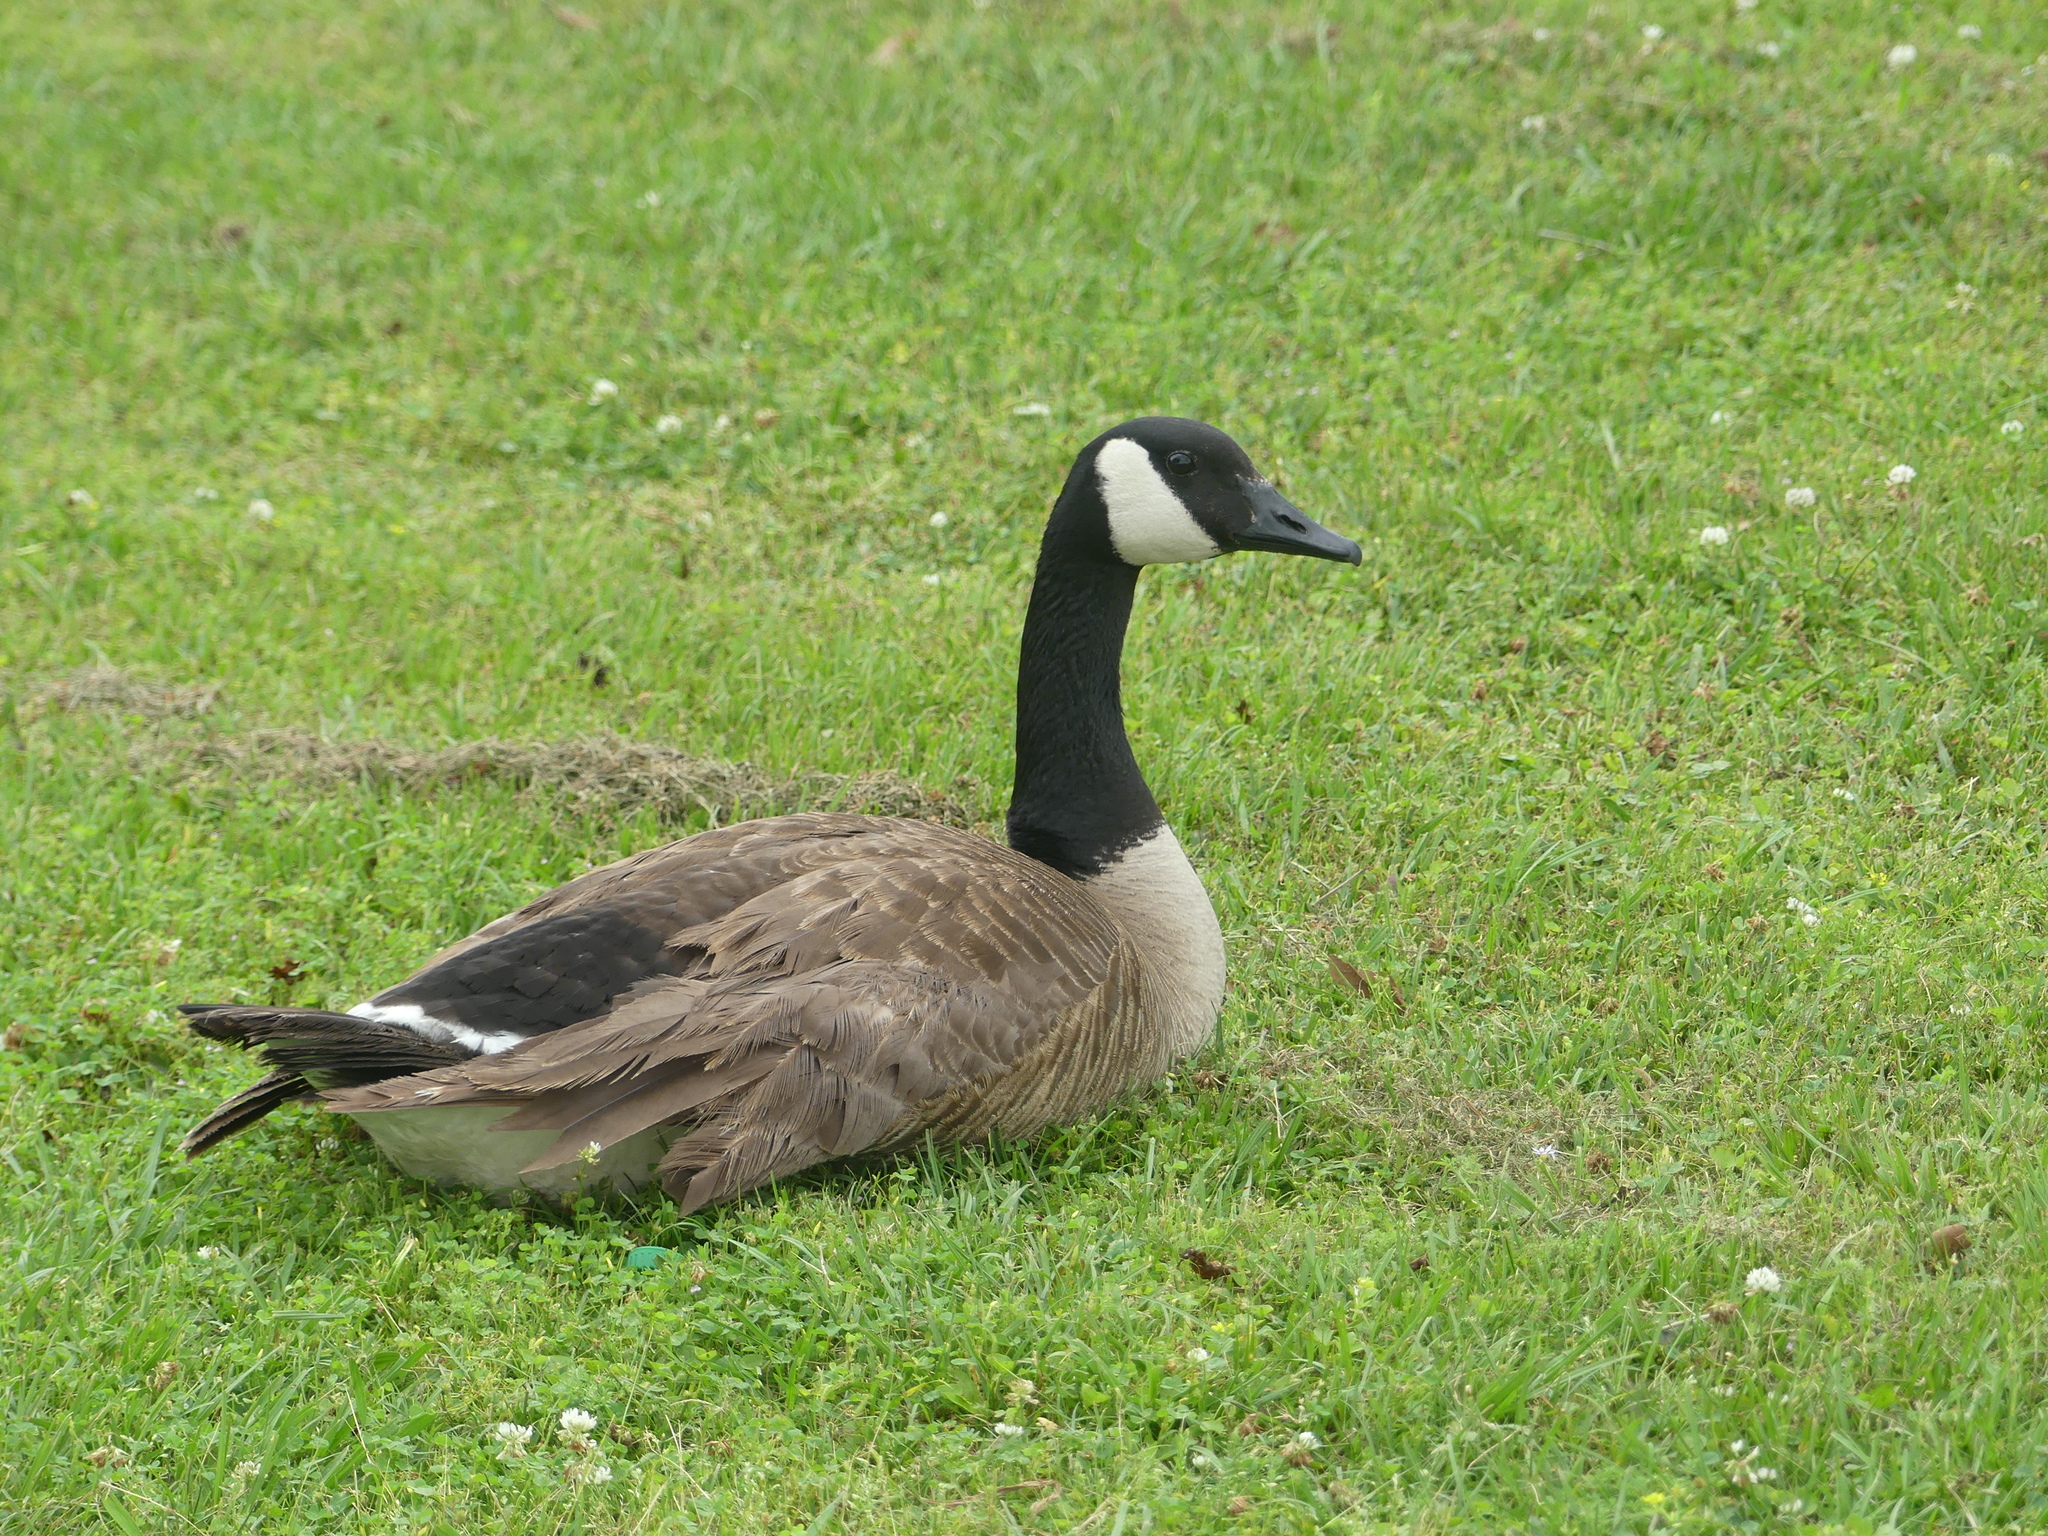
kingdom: Animalia
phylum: Chordata
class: Aves
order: Anseriformes
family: Anatidae
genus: Branta
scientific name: Branta canadensis
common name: Canada goose
